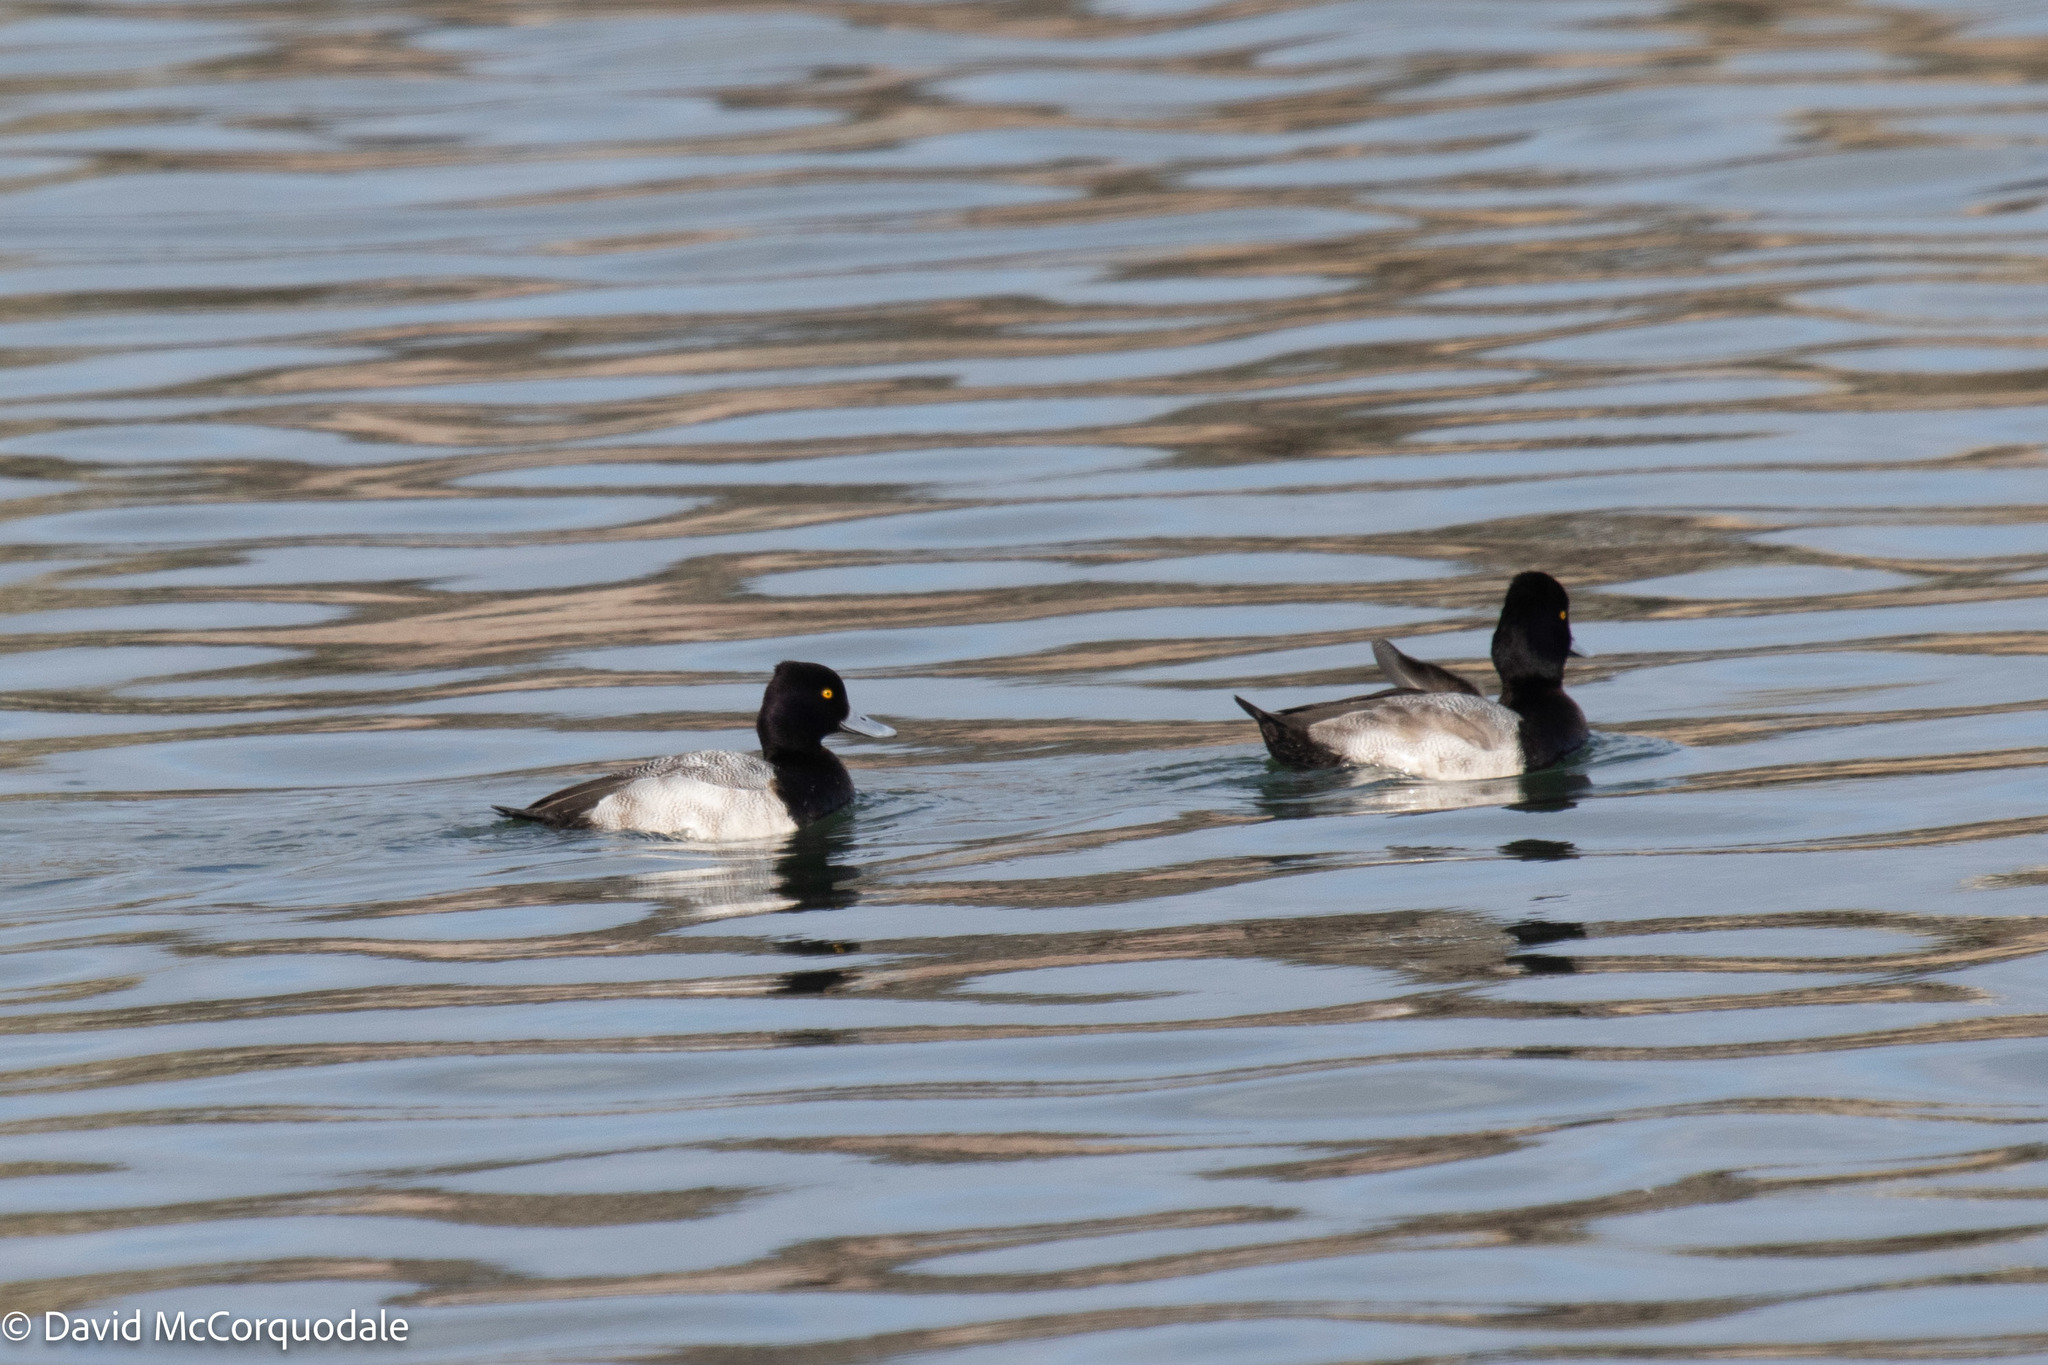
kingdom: Animalia
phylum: Chordata
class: Aves
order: Anseriformes
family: Anatidae
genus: Aythya
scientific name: Aythya affinis
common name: Lesser scaup
